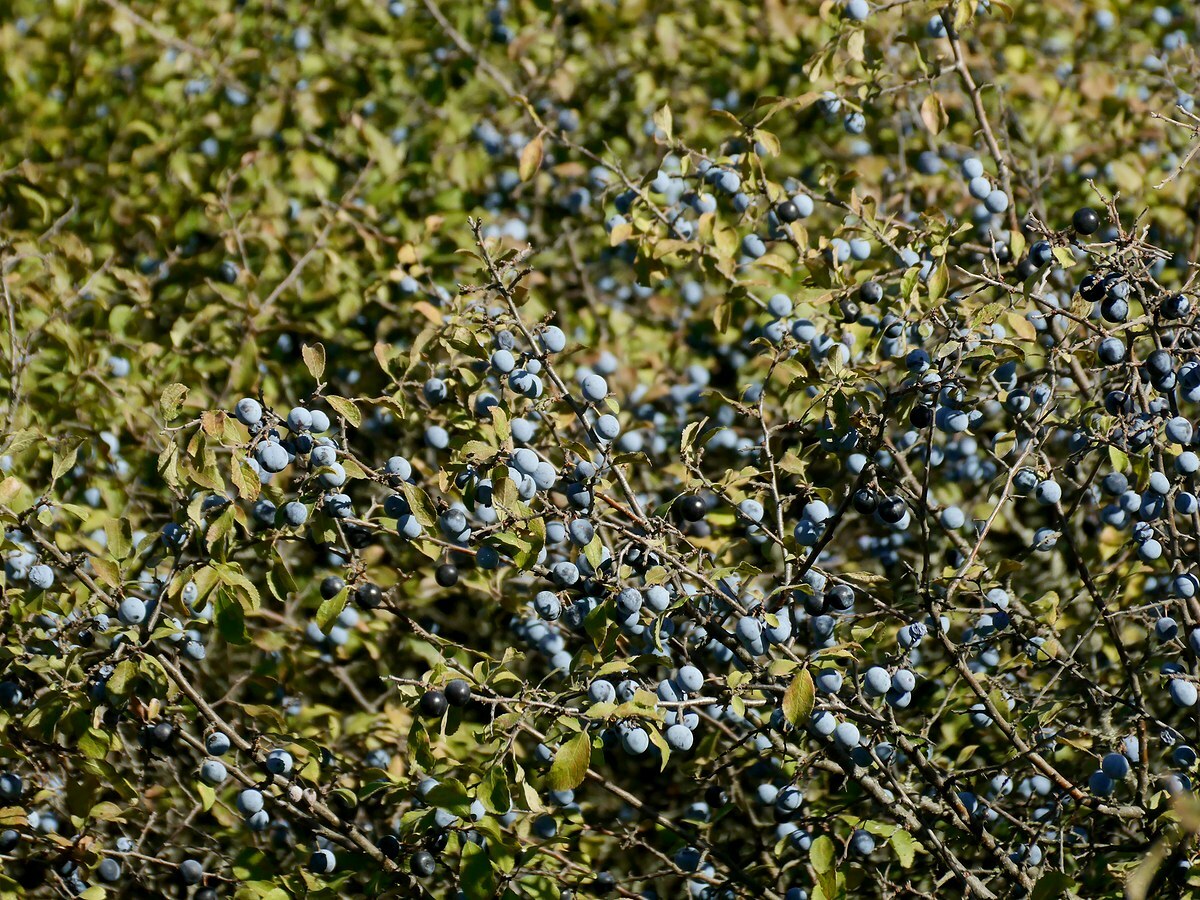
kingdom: Plantae
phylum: Tracheophyta
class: Magnoliopsida
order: Rosales
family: Rosaceae
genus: Prunus
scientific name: Prunus spinosa
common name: Blackthorn
